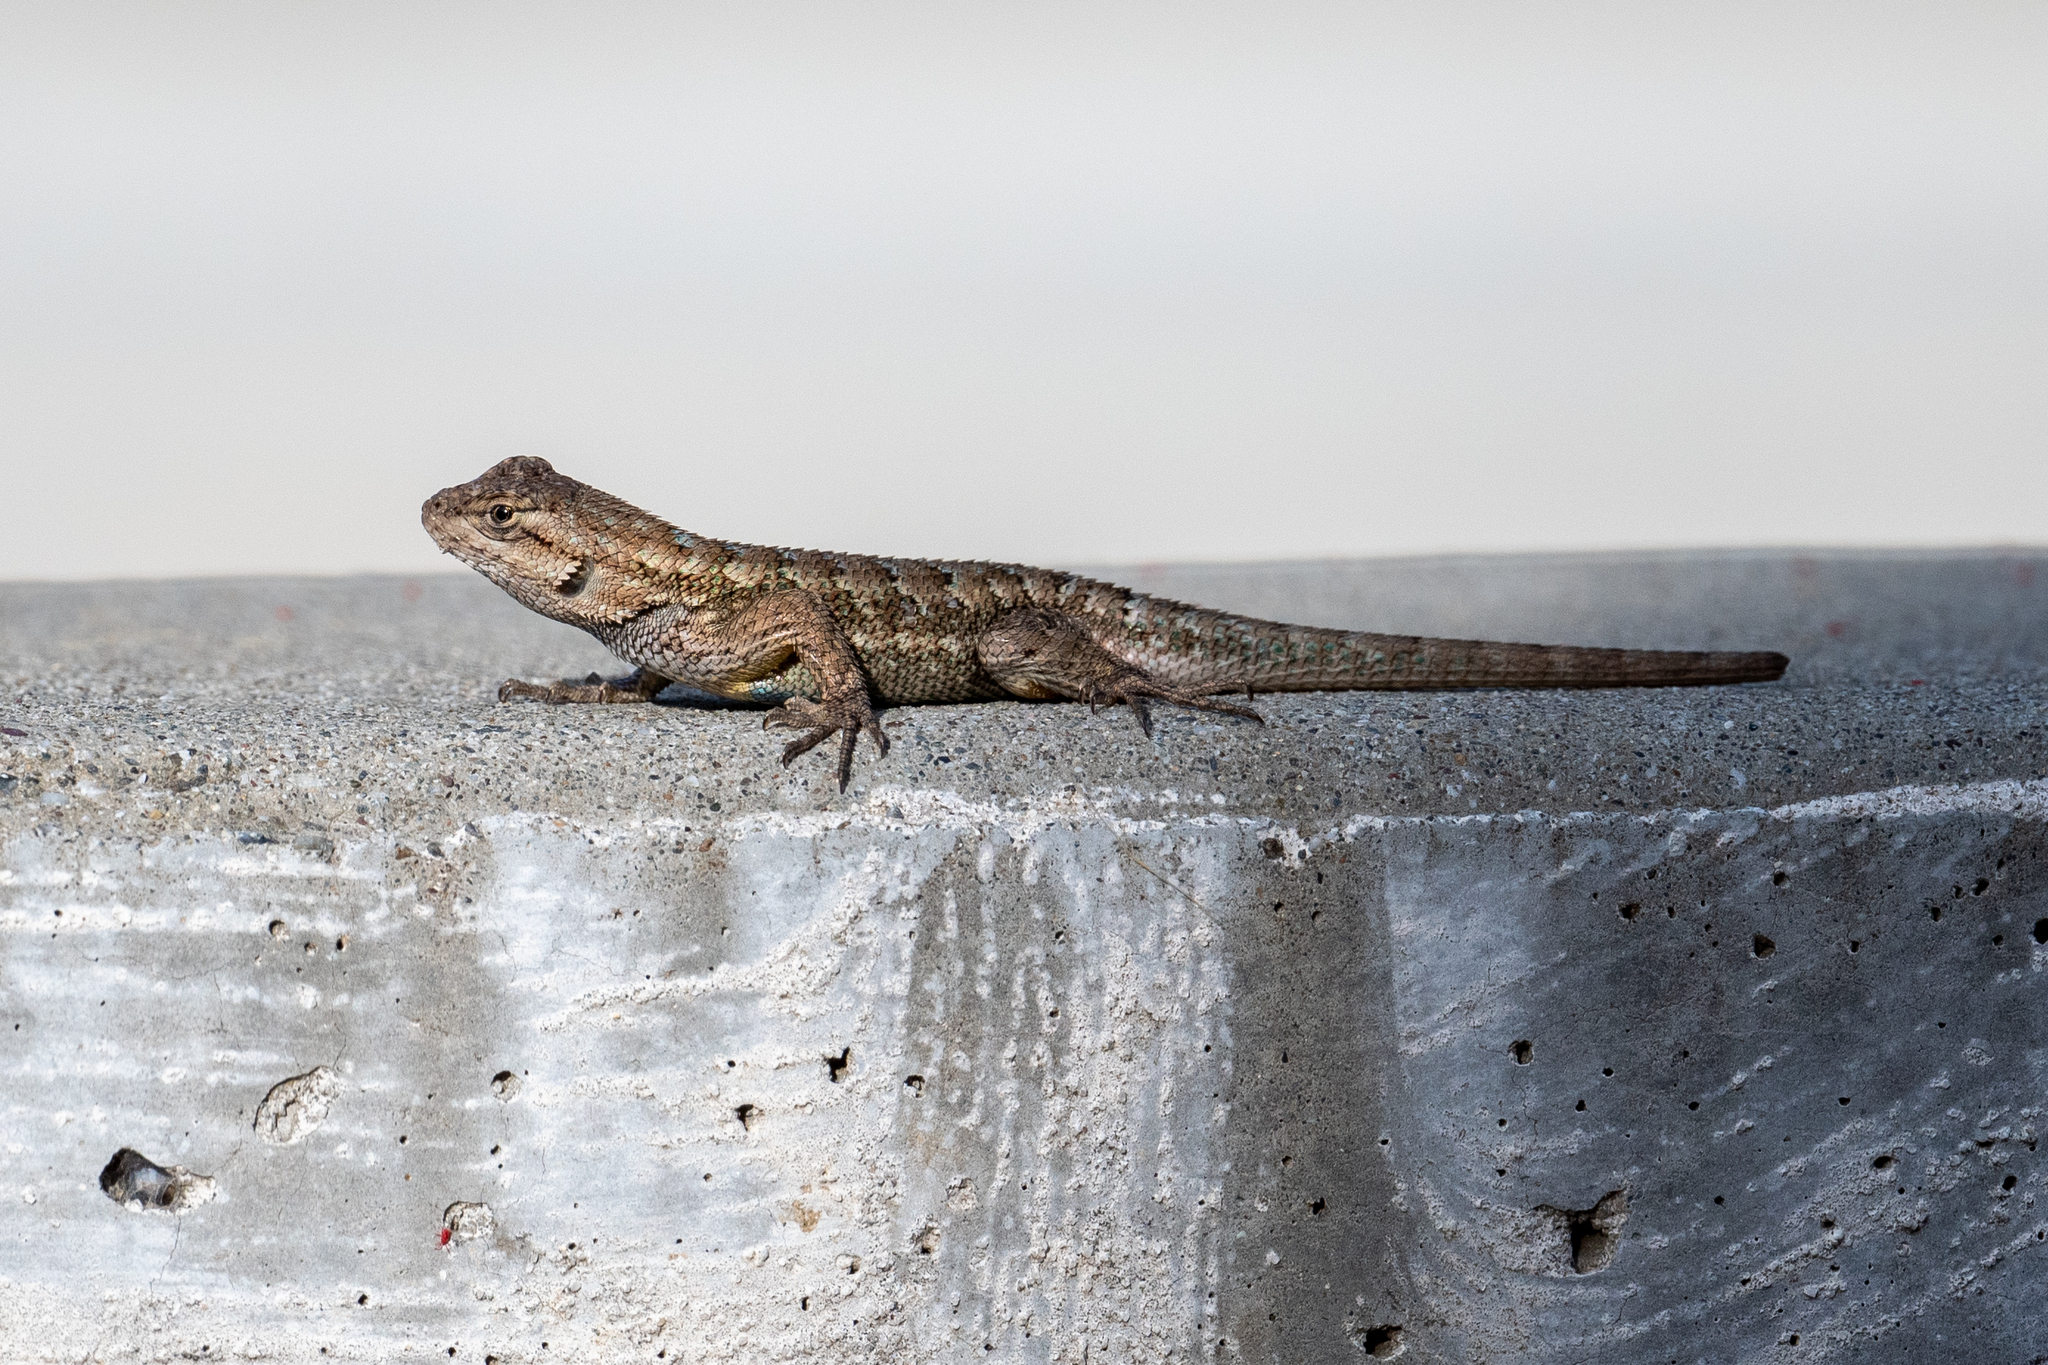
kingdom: Animalia
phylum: Chordata
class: Squamata
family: Phrynosomatidae
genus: Sceloporus
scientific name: Sceloporus occidentalis
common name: Western fence lizard
